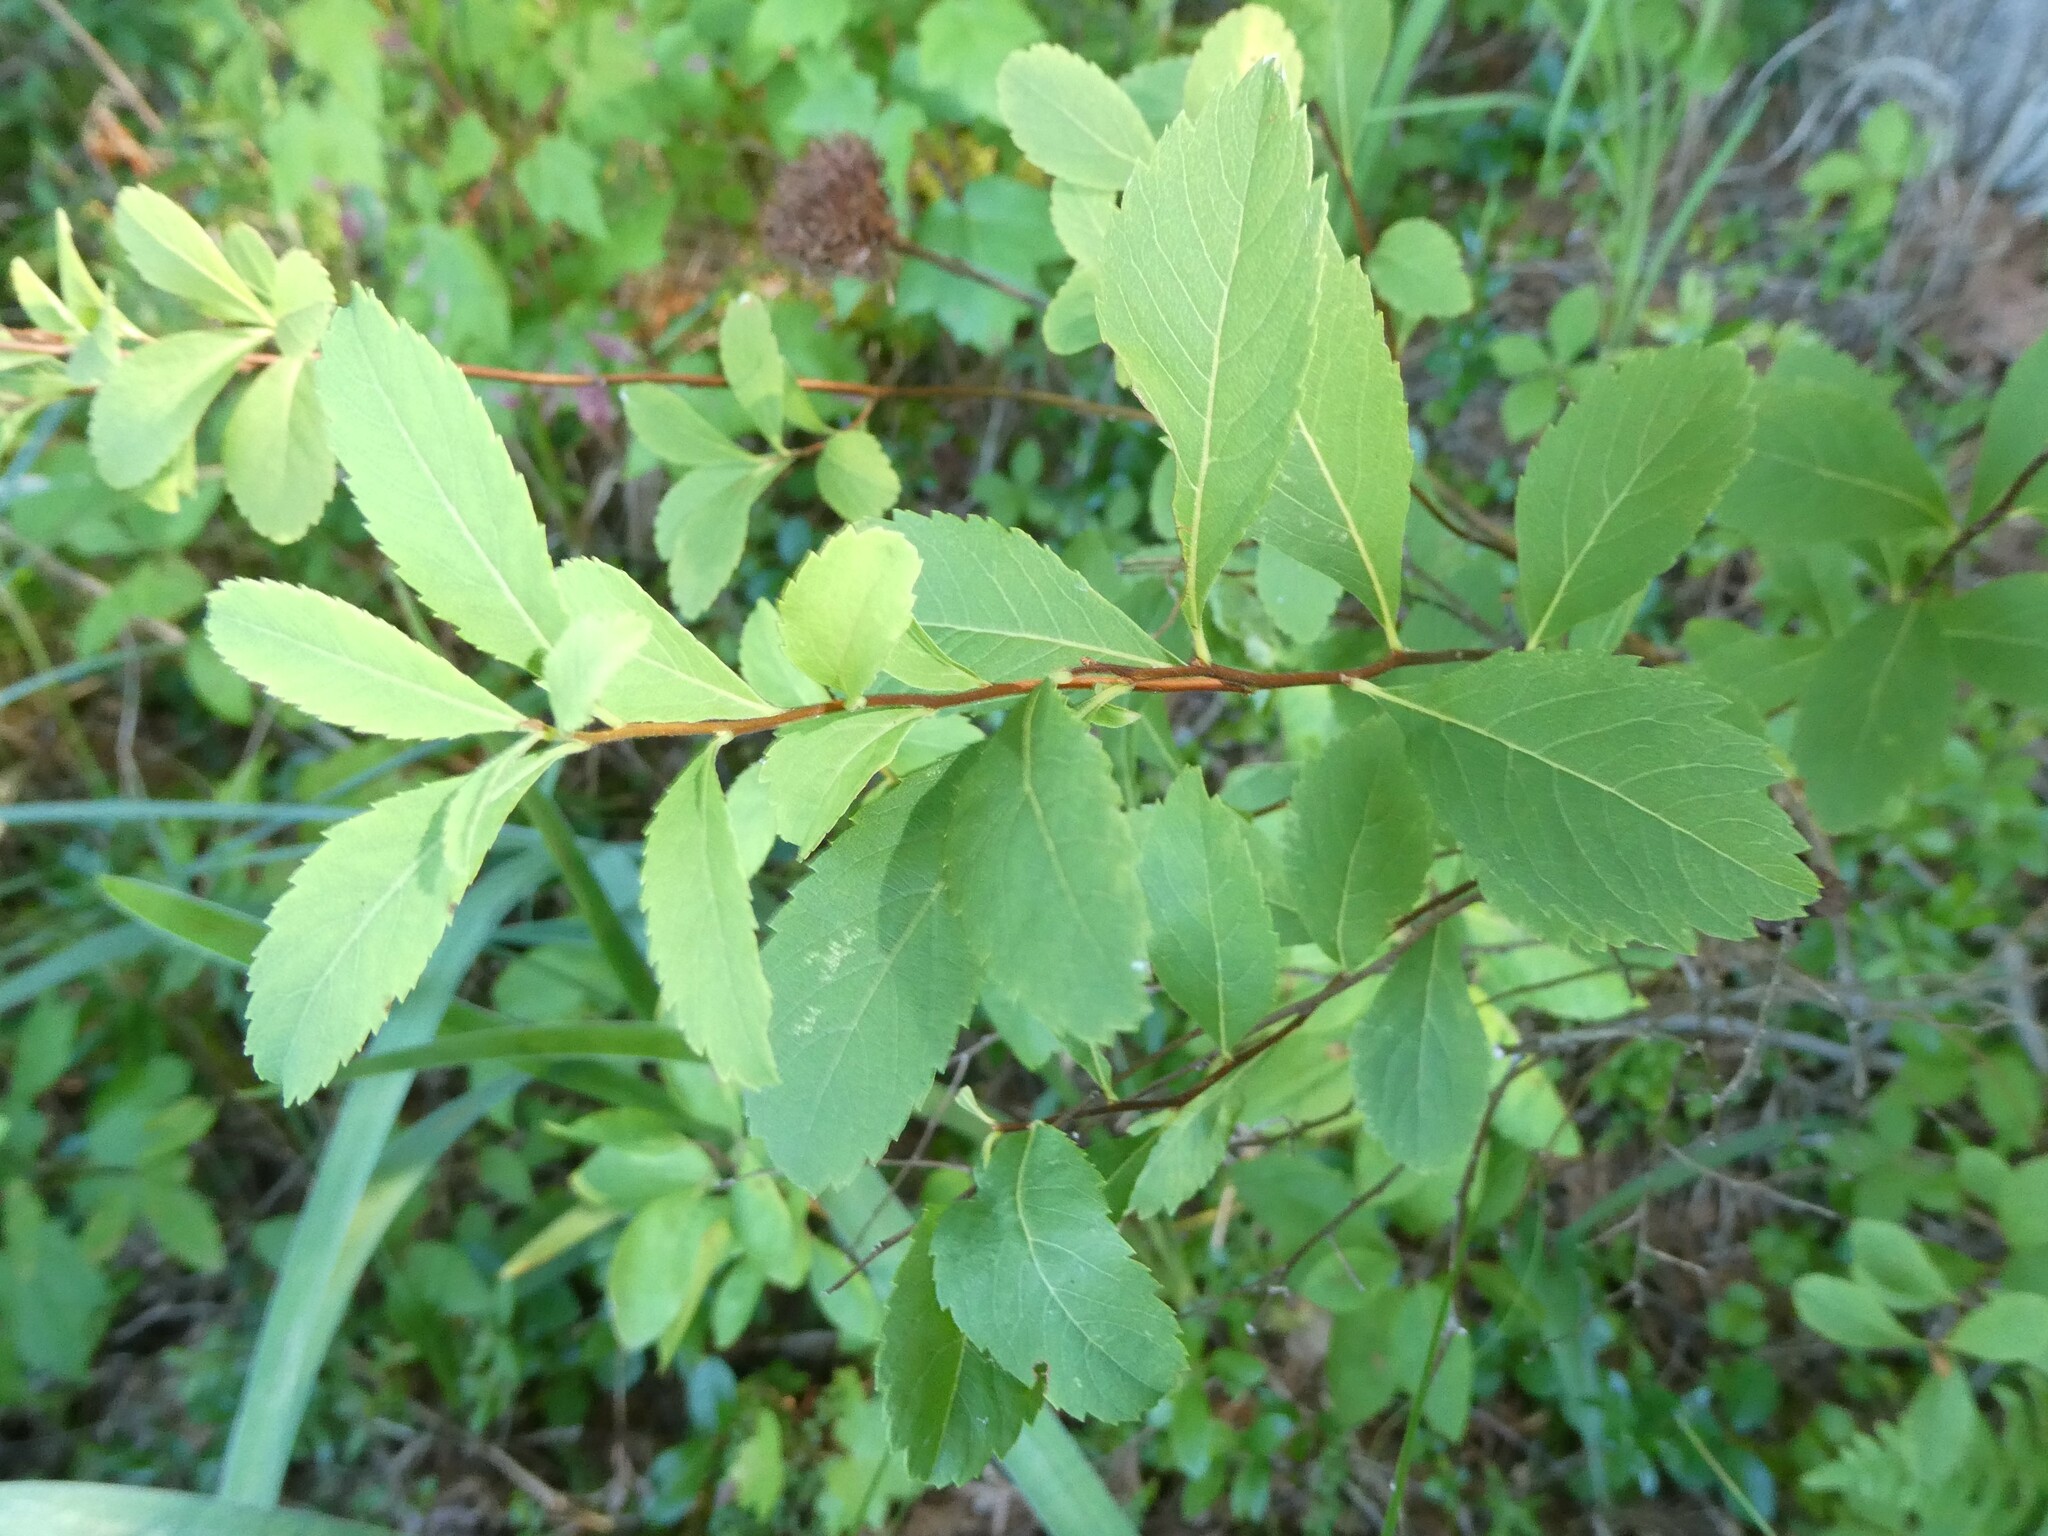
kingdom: Animalia
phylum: Arthropoda
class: Insecta
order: Diptera
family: Cecidomyiidae
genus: Clinodiplosis
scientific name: Clinodiplosis lappa
